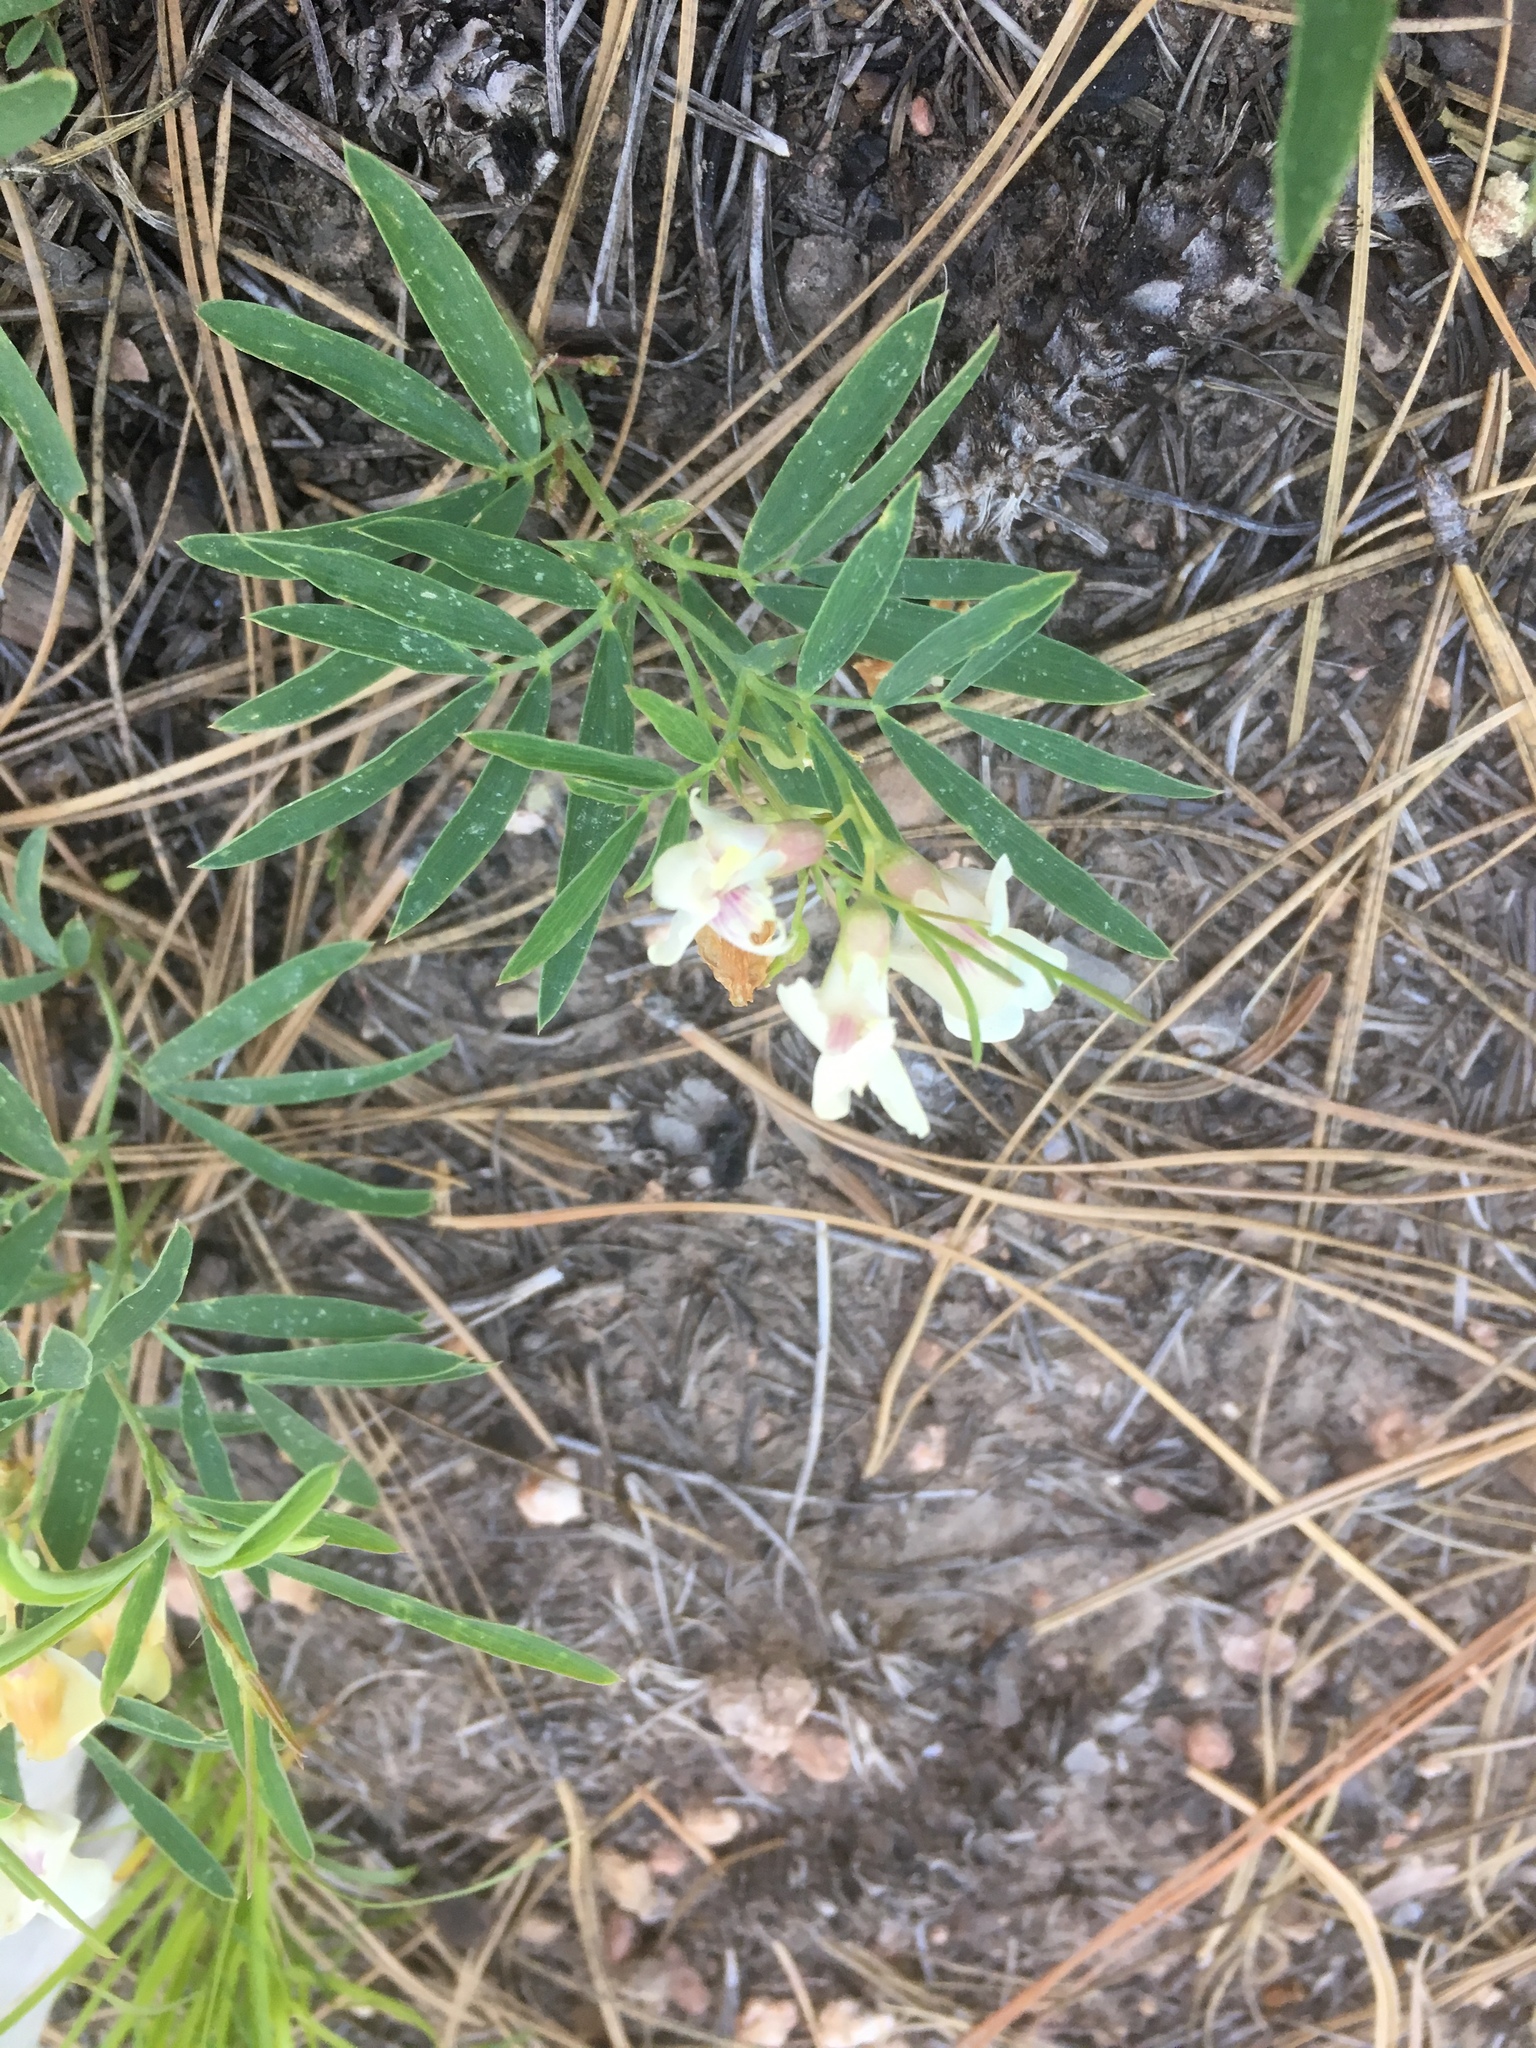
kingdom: Plantae
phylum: Tracheophyta
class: Magnoliopsida
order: Fabales
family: Fabaceae
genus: Lathyrus
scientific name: Lathyrus lanszwertii
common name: Lanszwert's vetchling
